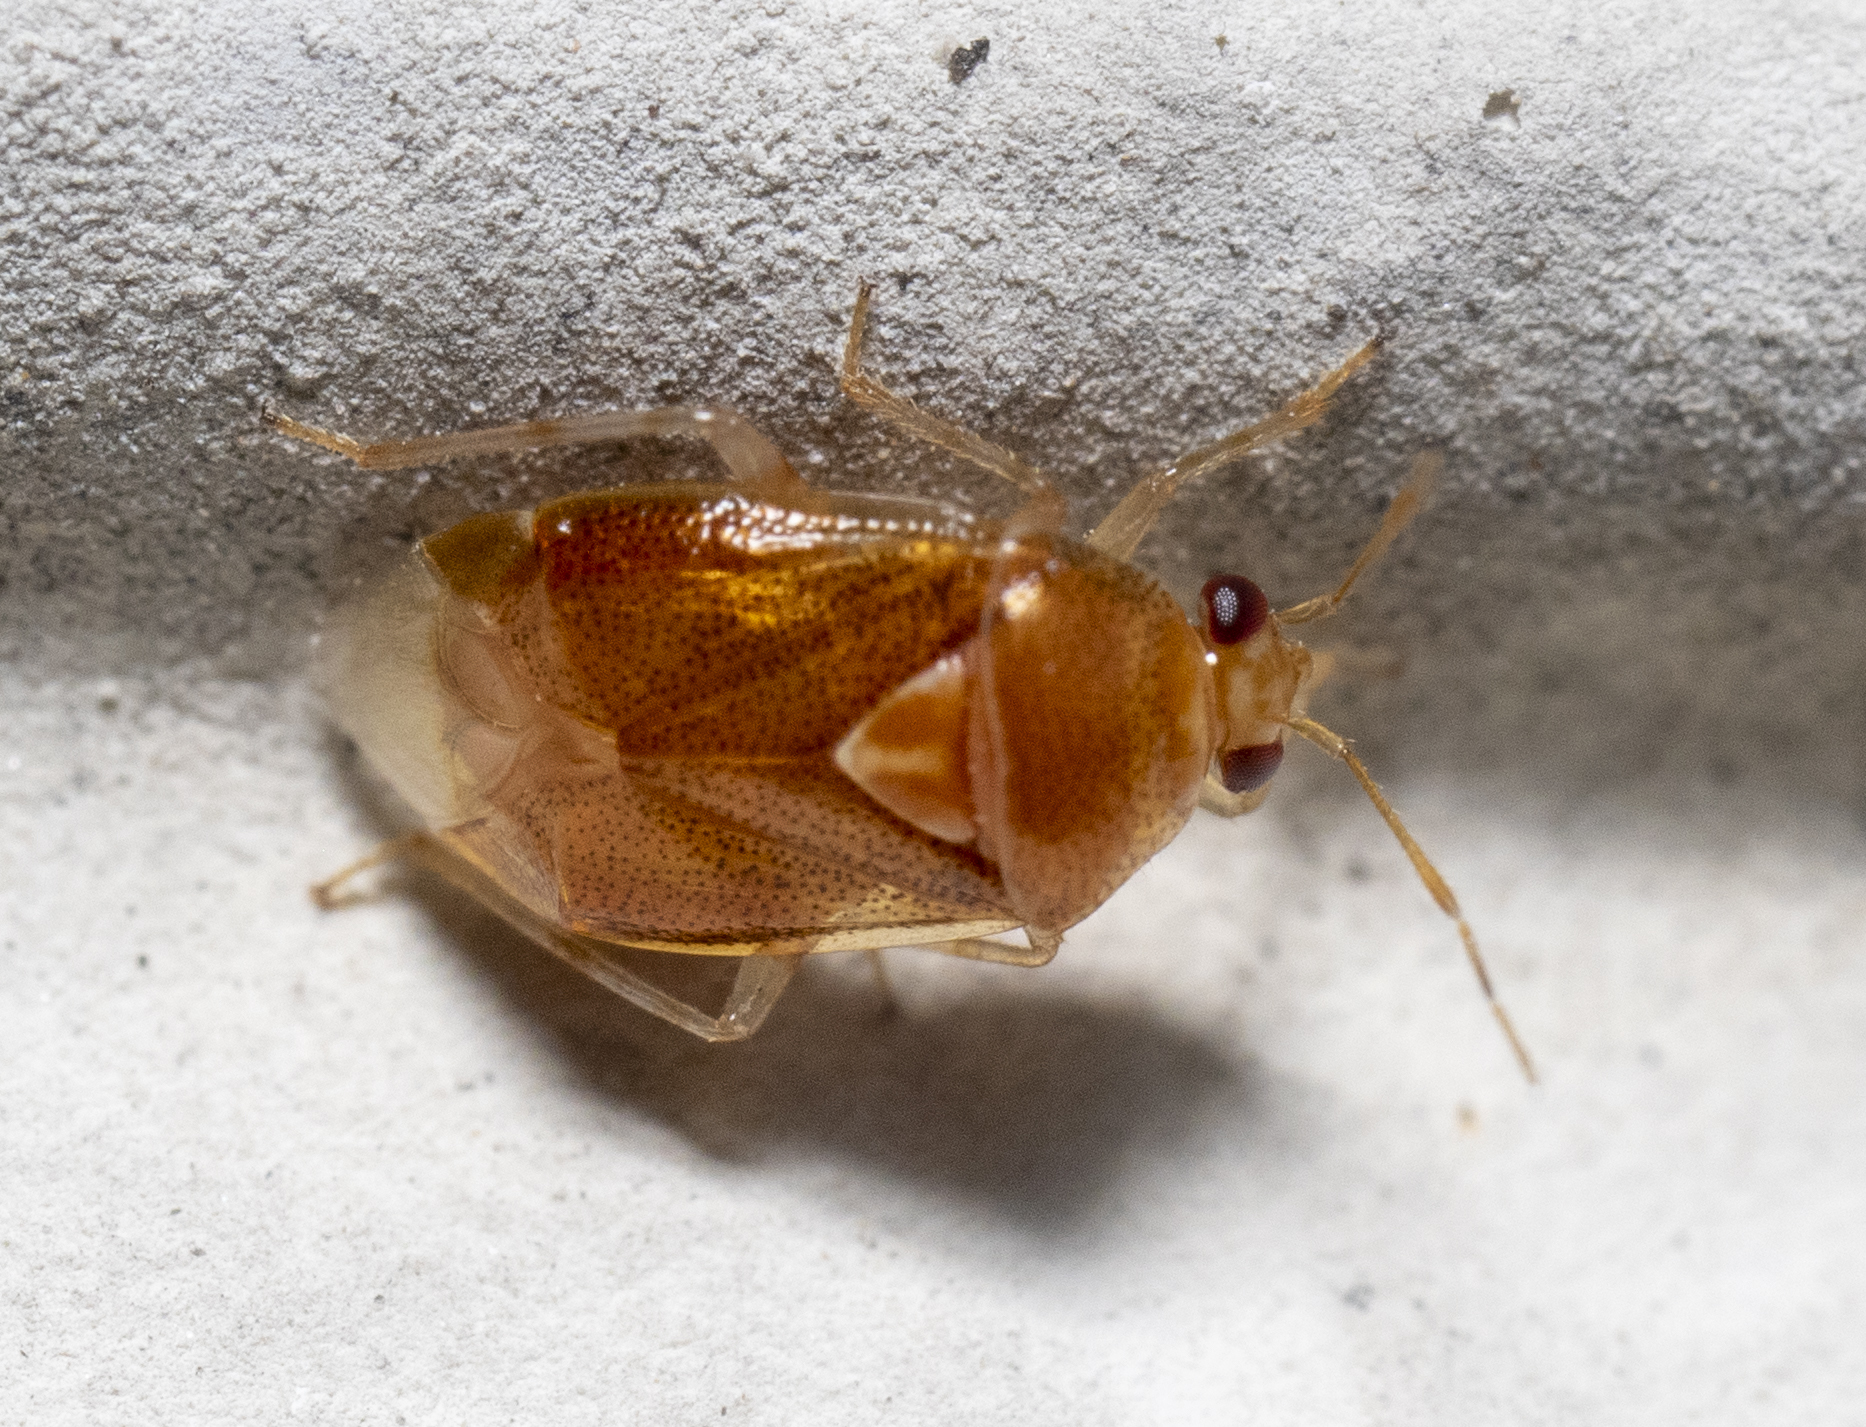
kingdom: Animalia
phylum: Arthropoda
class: Insecta
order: Hemiptera
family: Miridae
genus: Deraeocoris
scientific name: Deraeocoris lutescens
